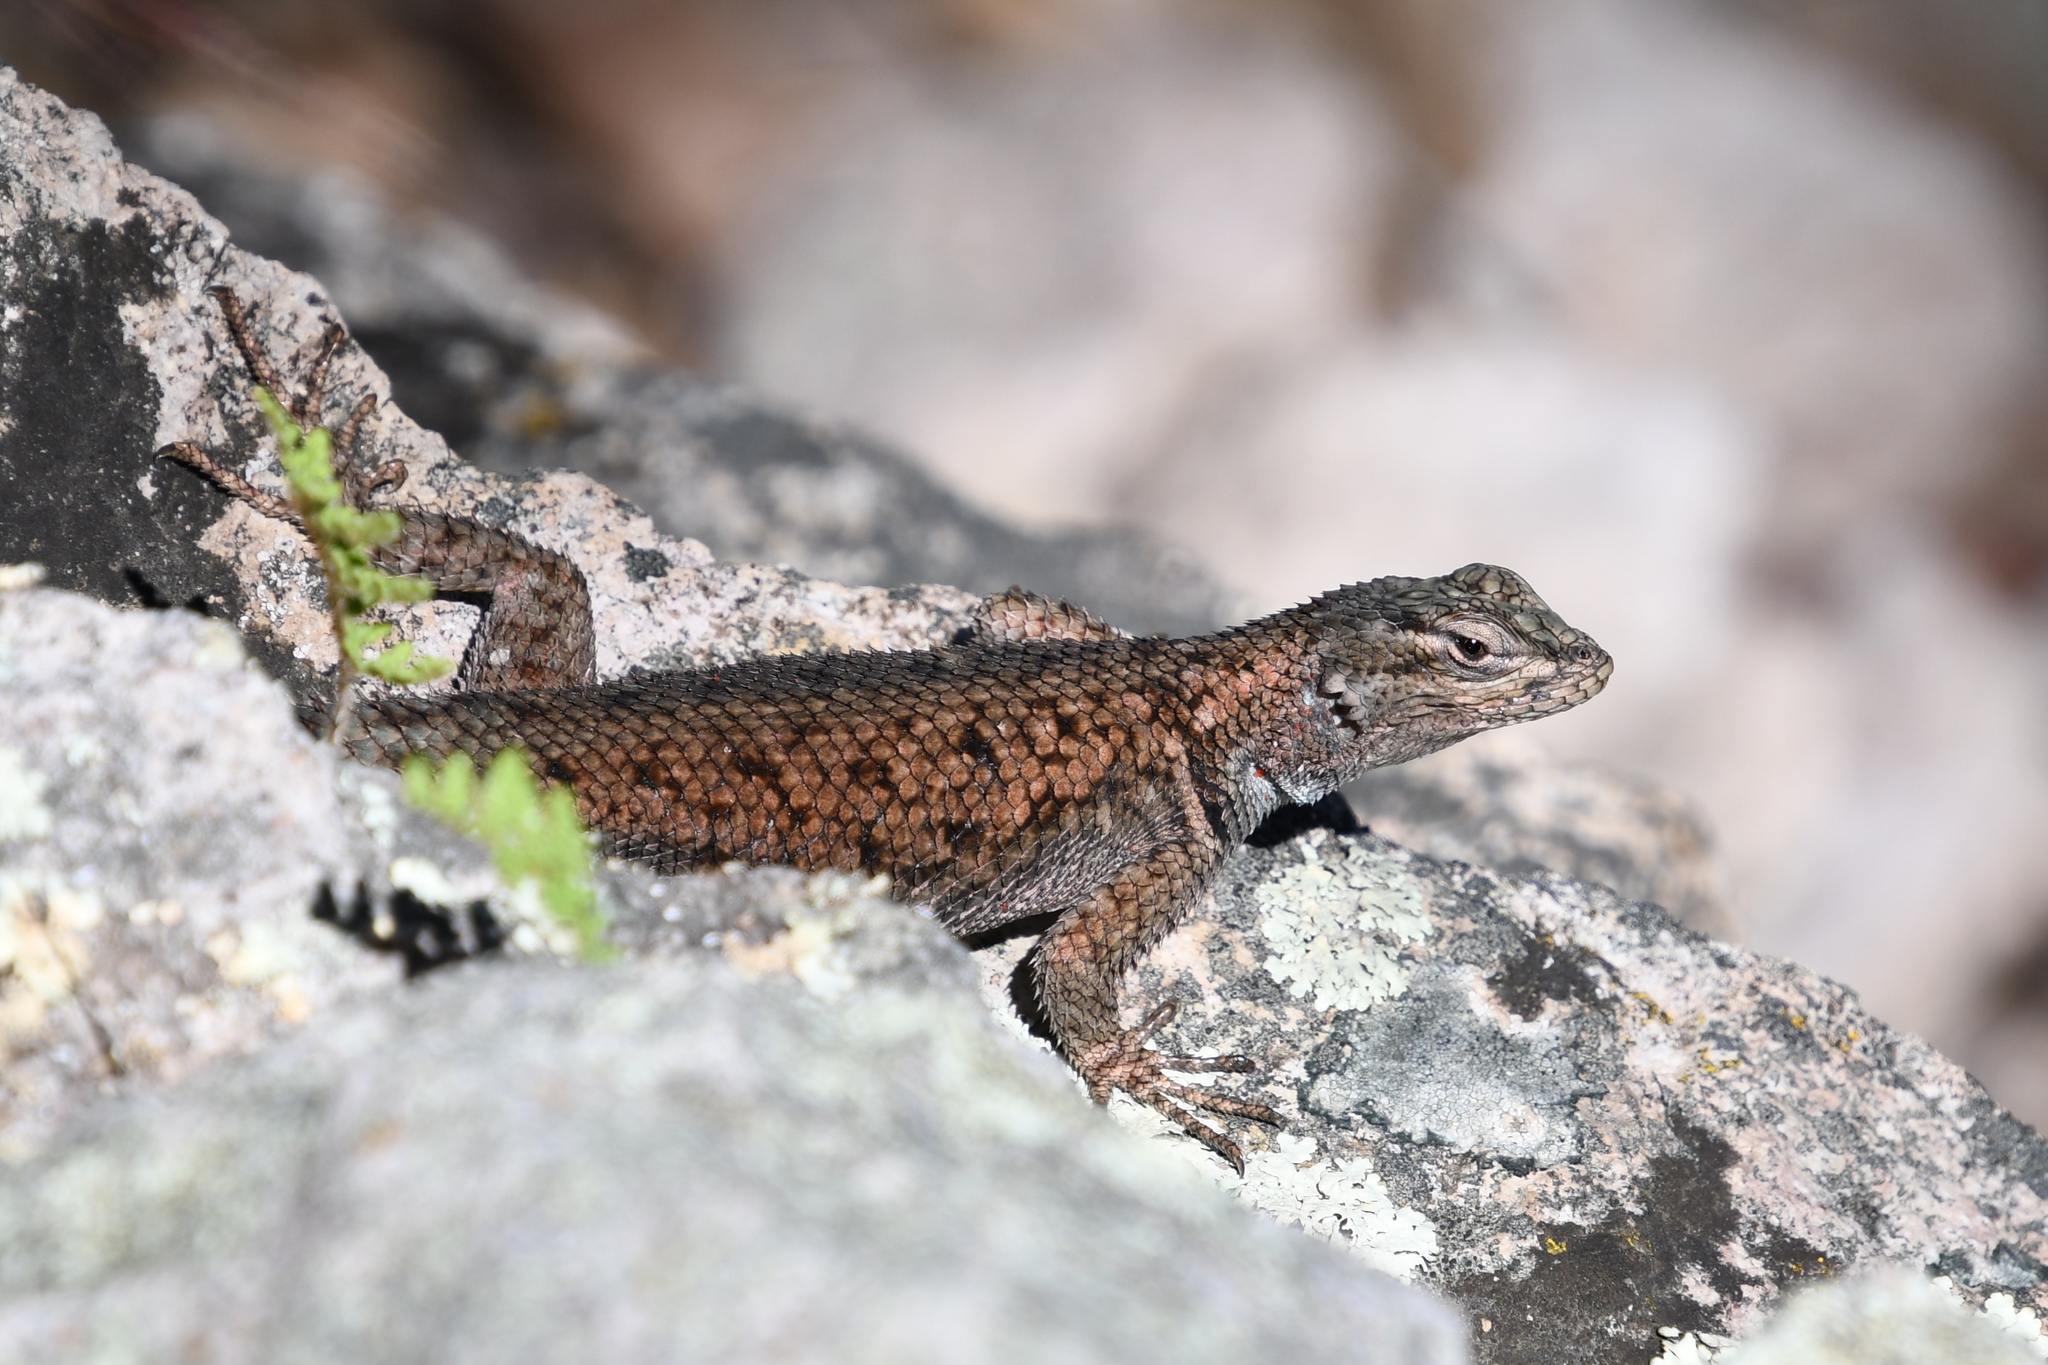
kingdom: Animalia
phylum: Chordata
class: Squamata
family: Phrynosomatidae
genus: Sceloporus
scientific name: Sceloporus jarrovii
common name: Yarrow's spiny lizard
